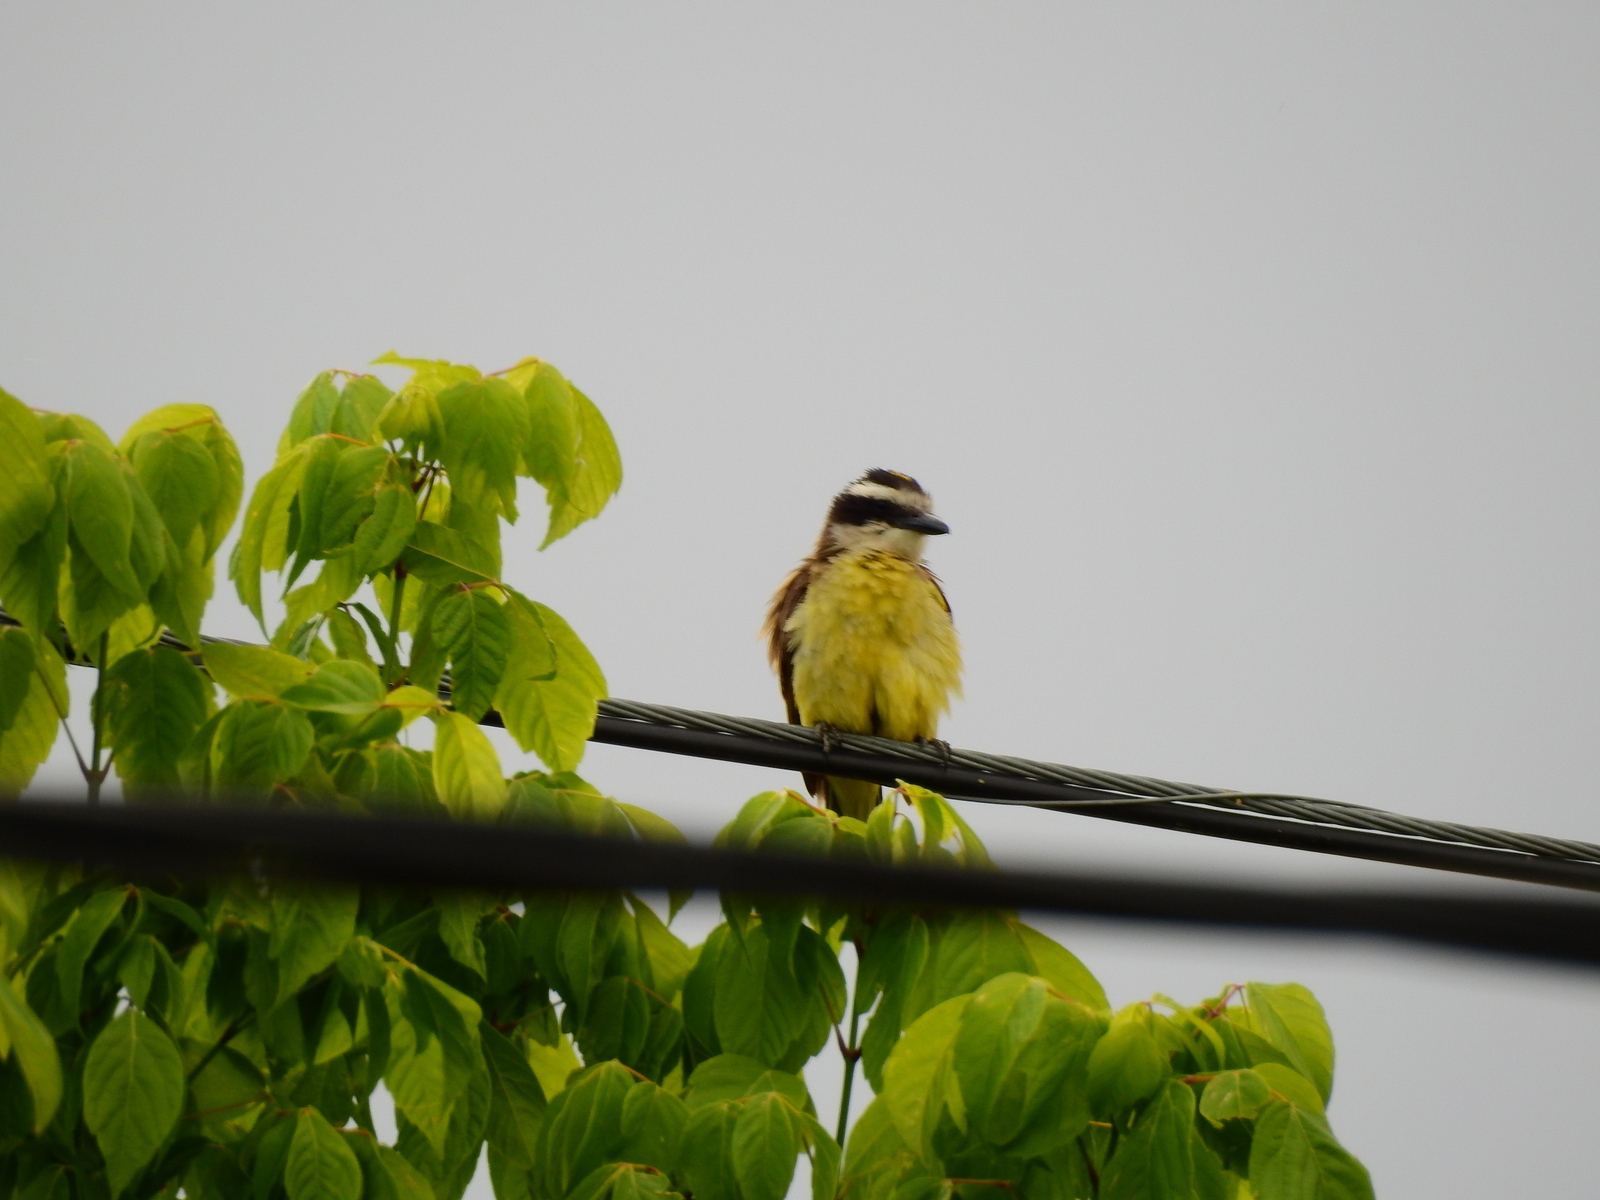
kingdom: Animalia
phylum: Chordata
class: Aves
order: Passeriformes
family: Tyrannidae
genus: Pitangus
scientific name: Pitangus sulphuratus
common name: Great kiskadee
